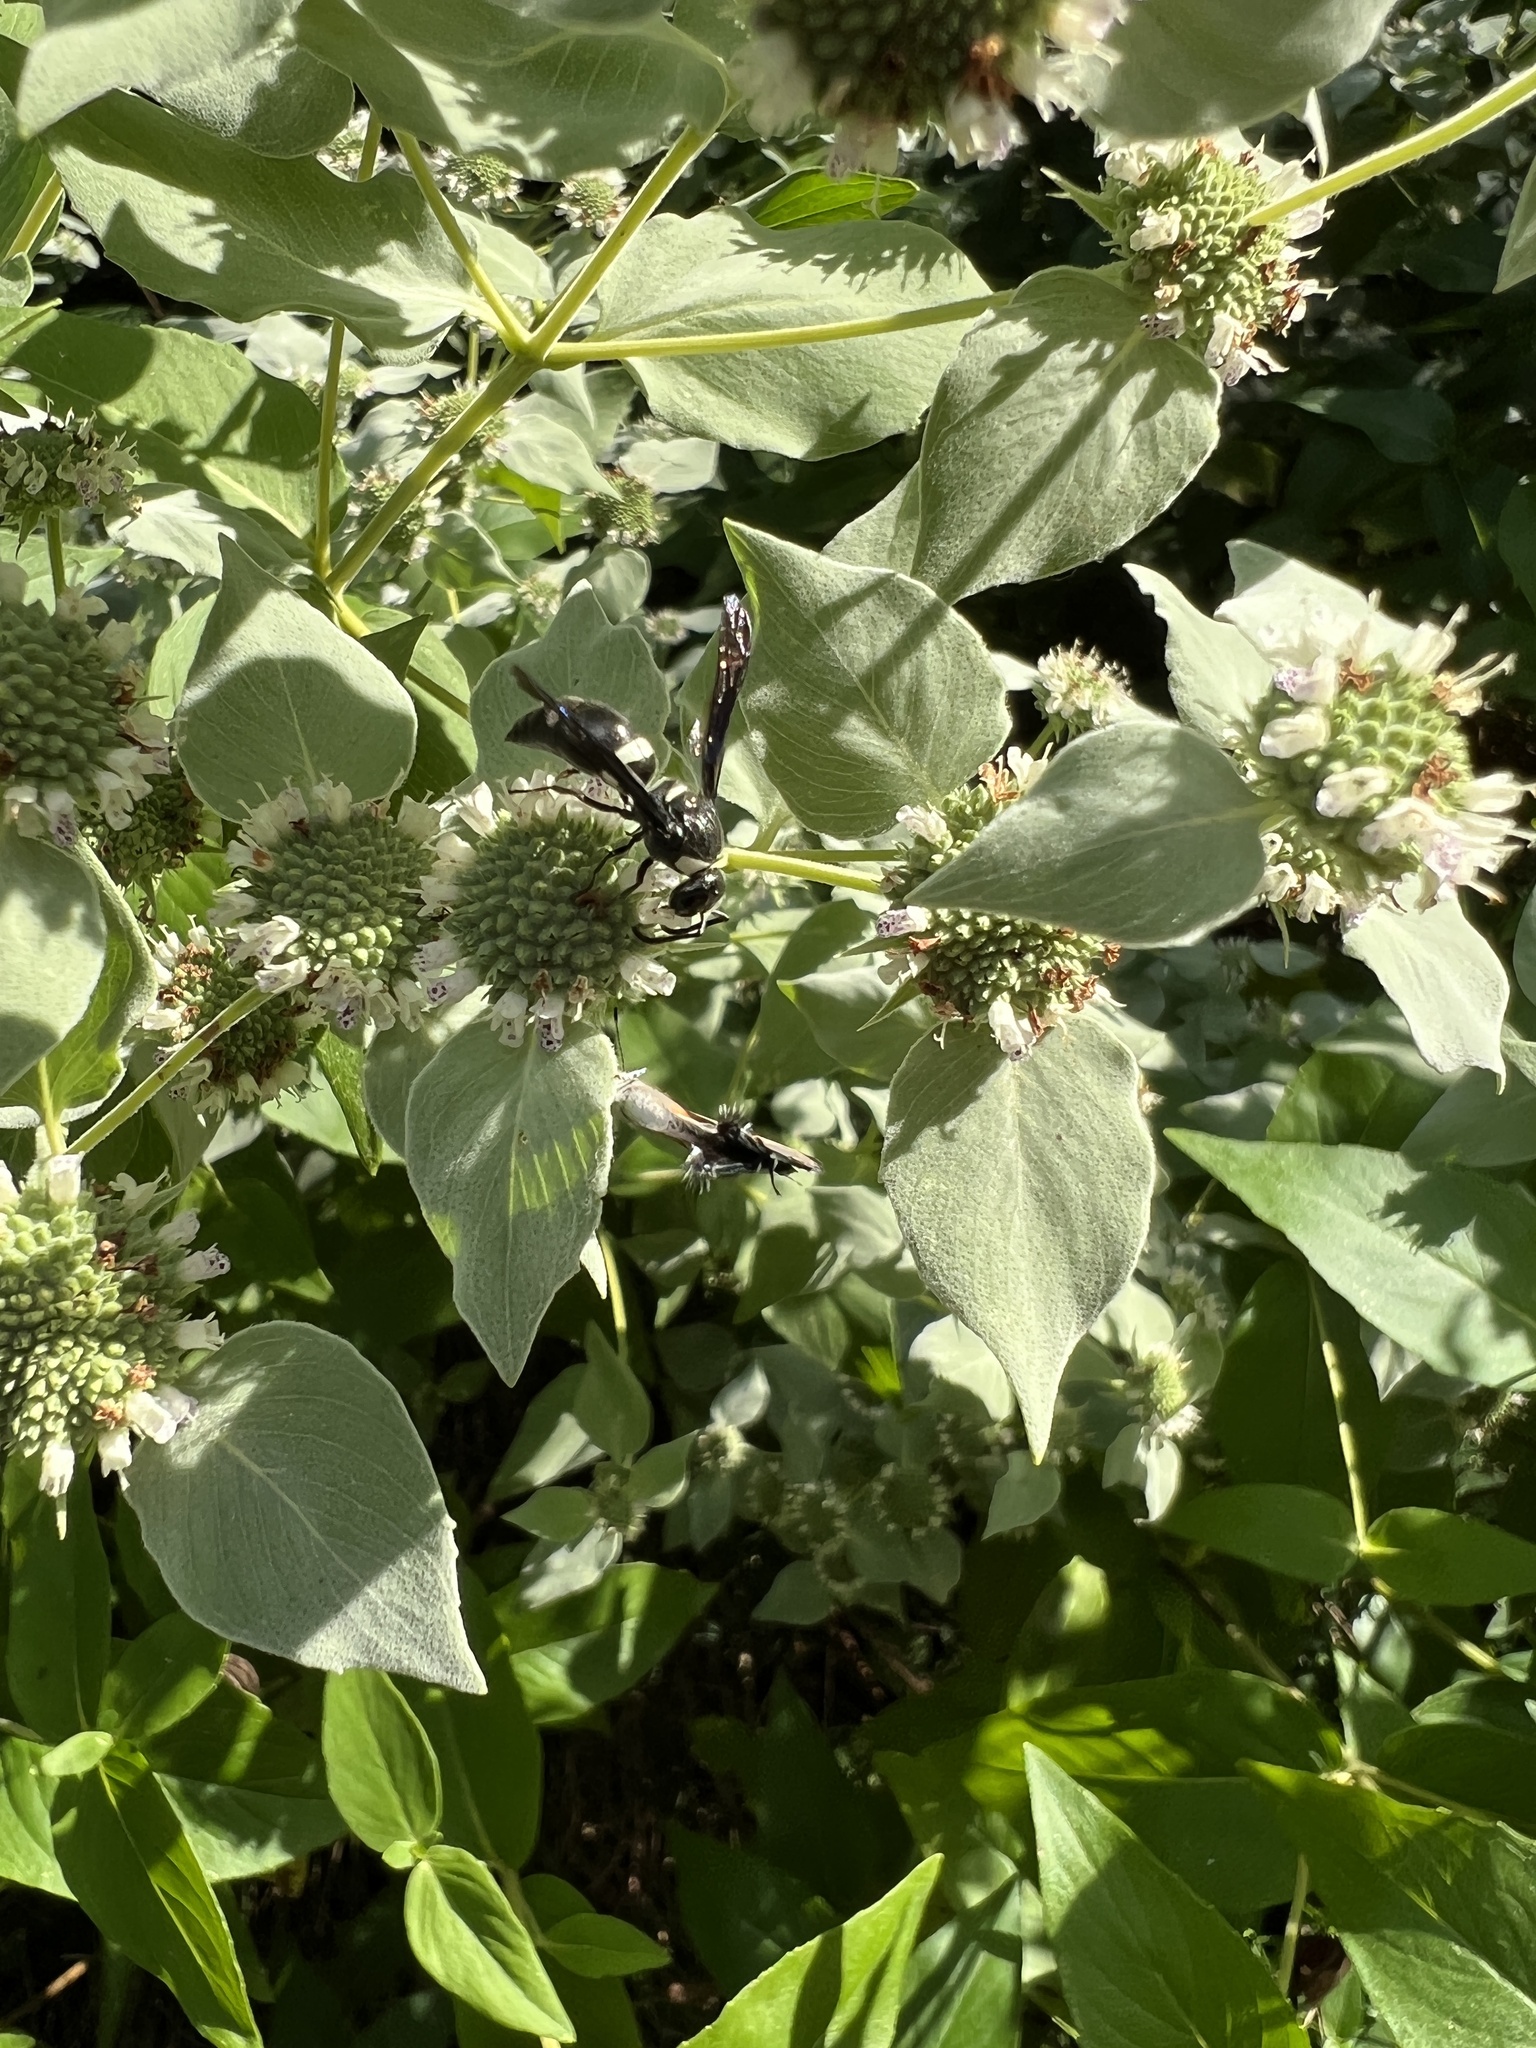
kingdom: Animalia
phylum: Arthropoda
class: Insecta
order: Hymenoptera
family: Eumenidae
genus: Monobia
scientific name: Monobia quadridens
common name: Four-toothed mason wasp
